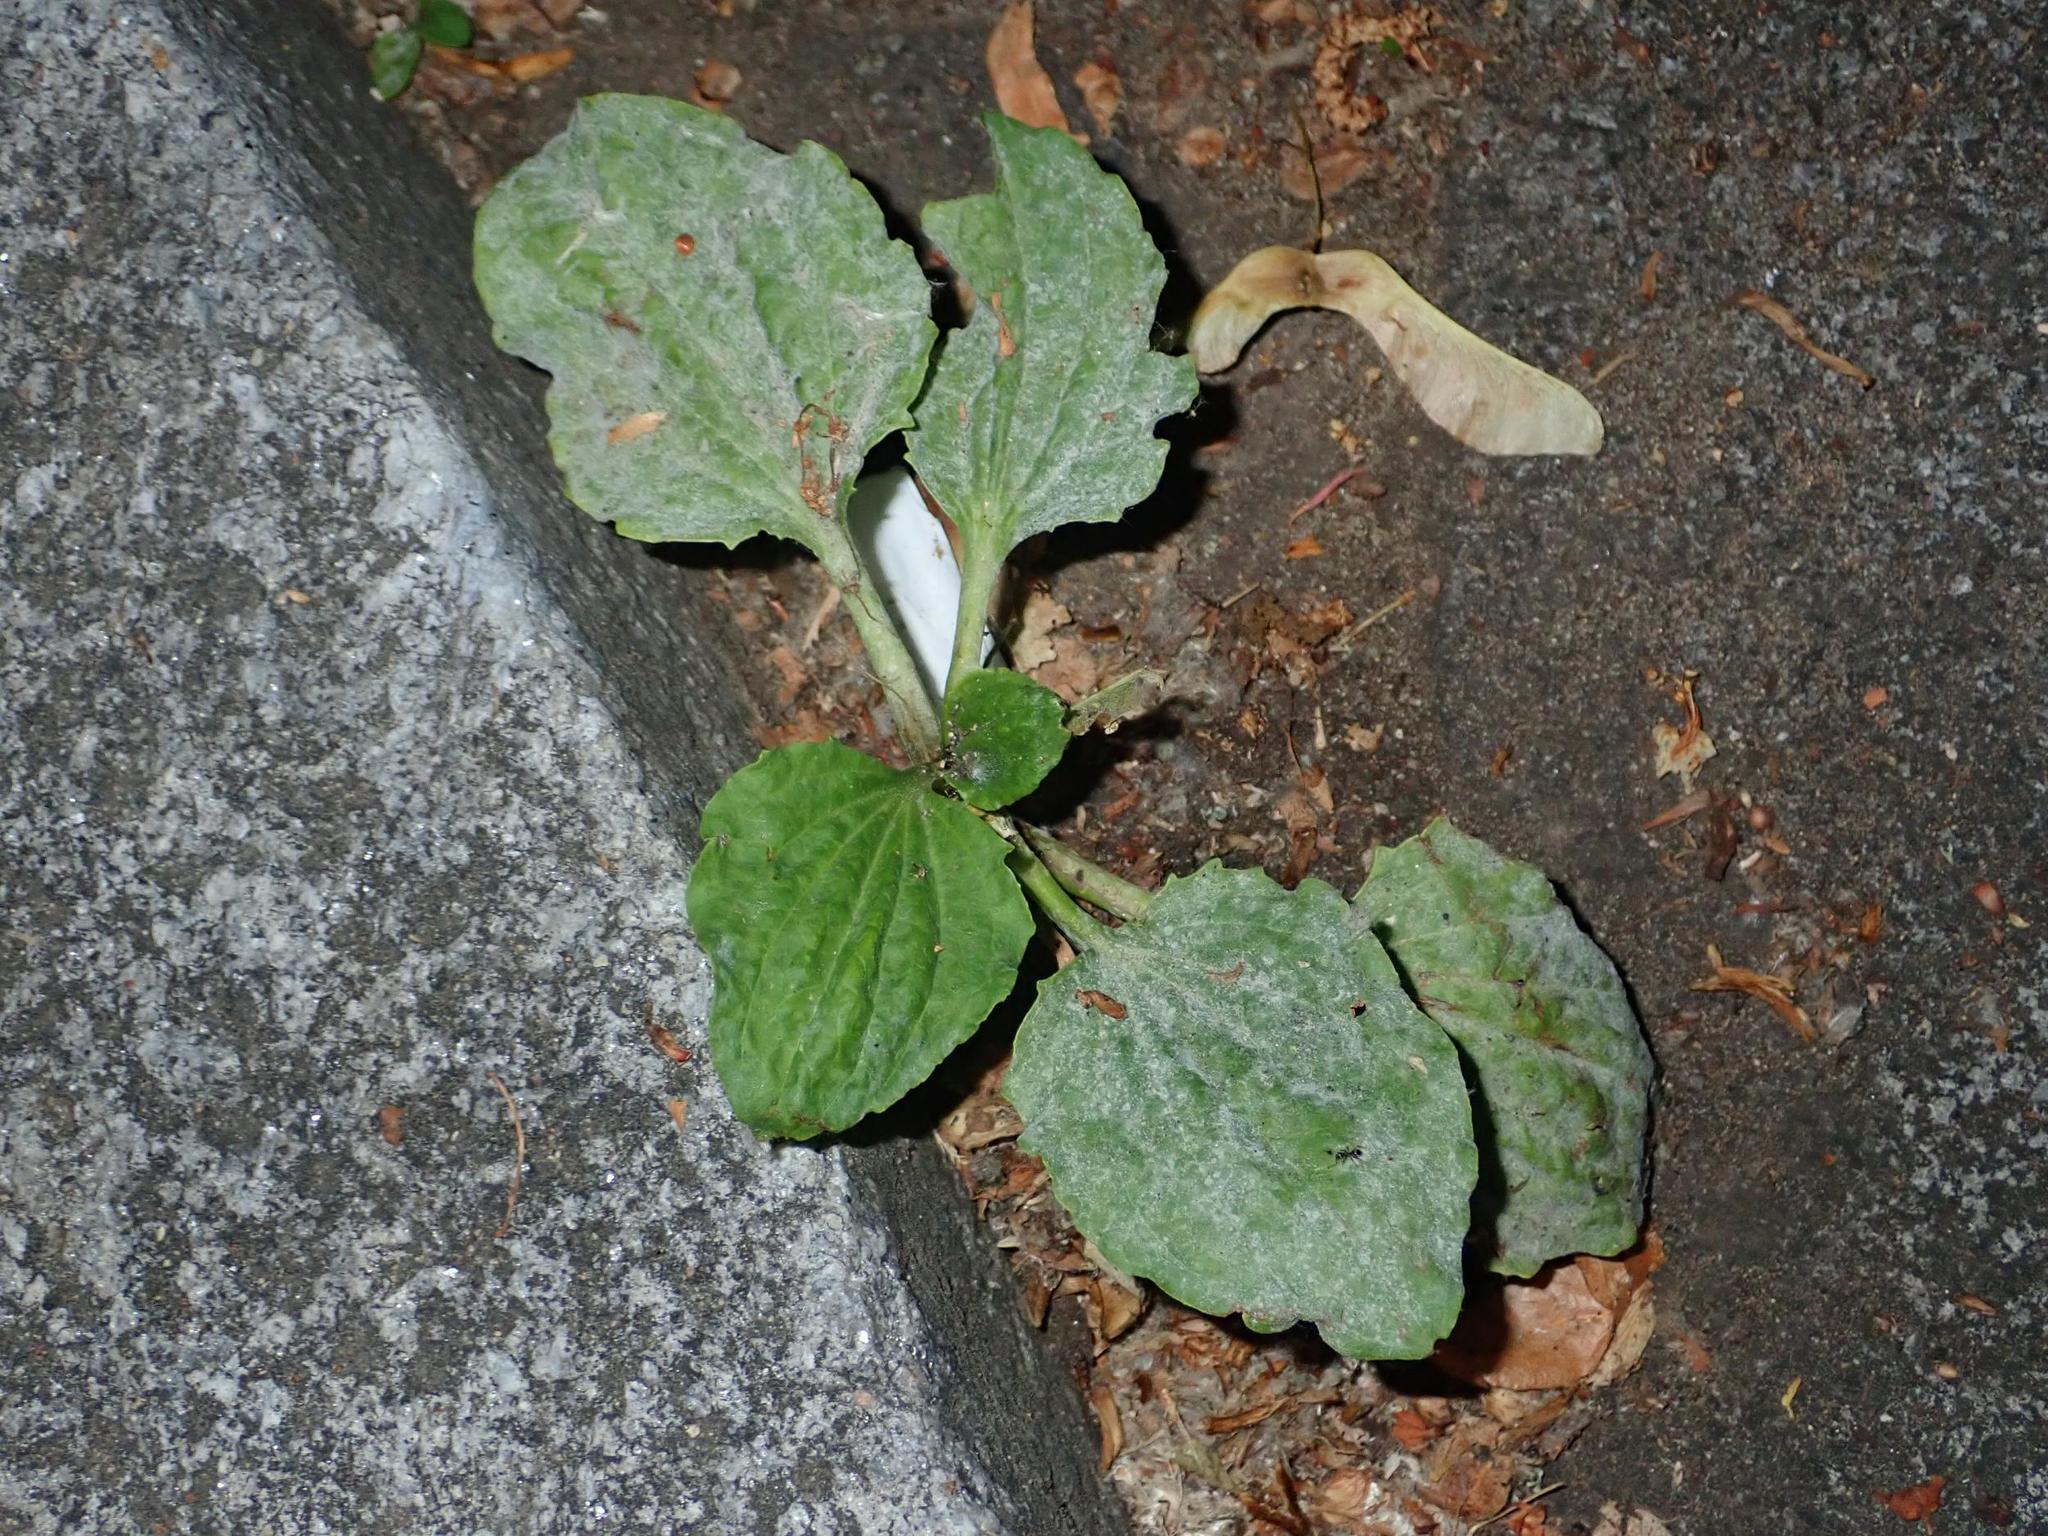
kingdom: Plantae
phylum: Tracheophyta
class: Magnoliopsida
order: Lamiales
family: Plantaginaceae
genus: Plantago
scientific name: Plantago major
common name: Common plantain
